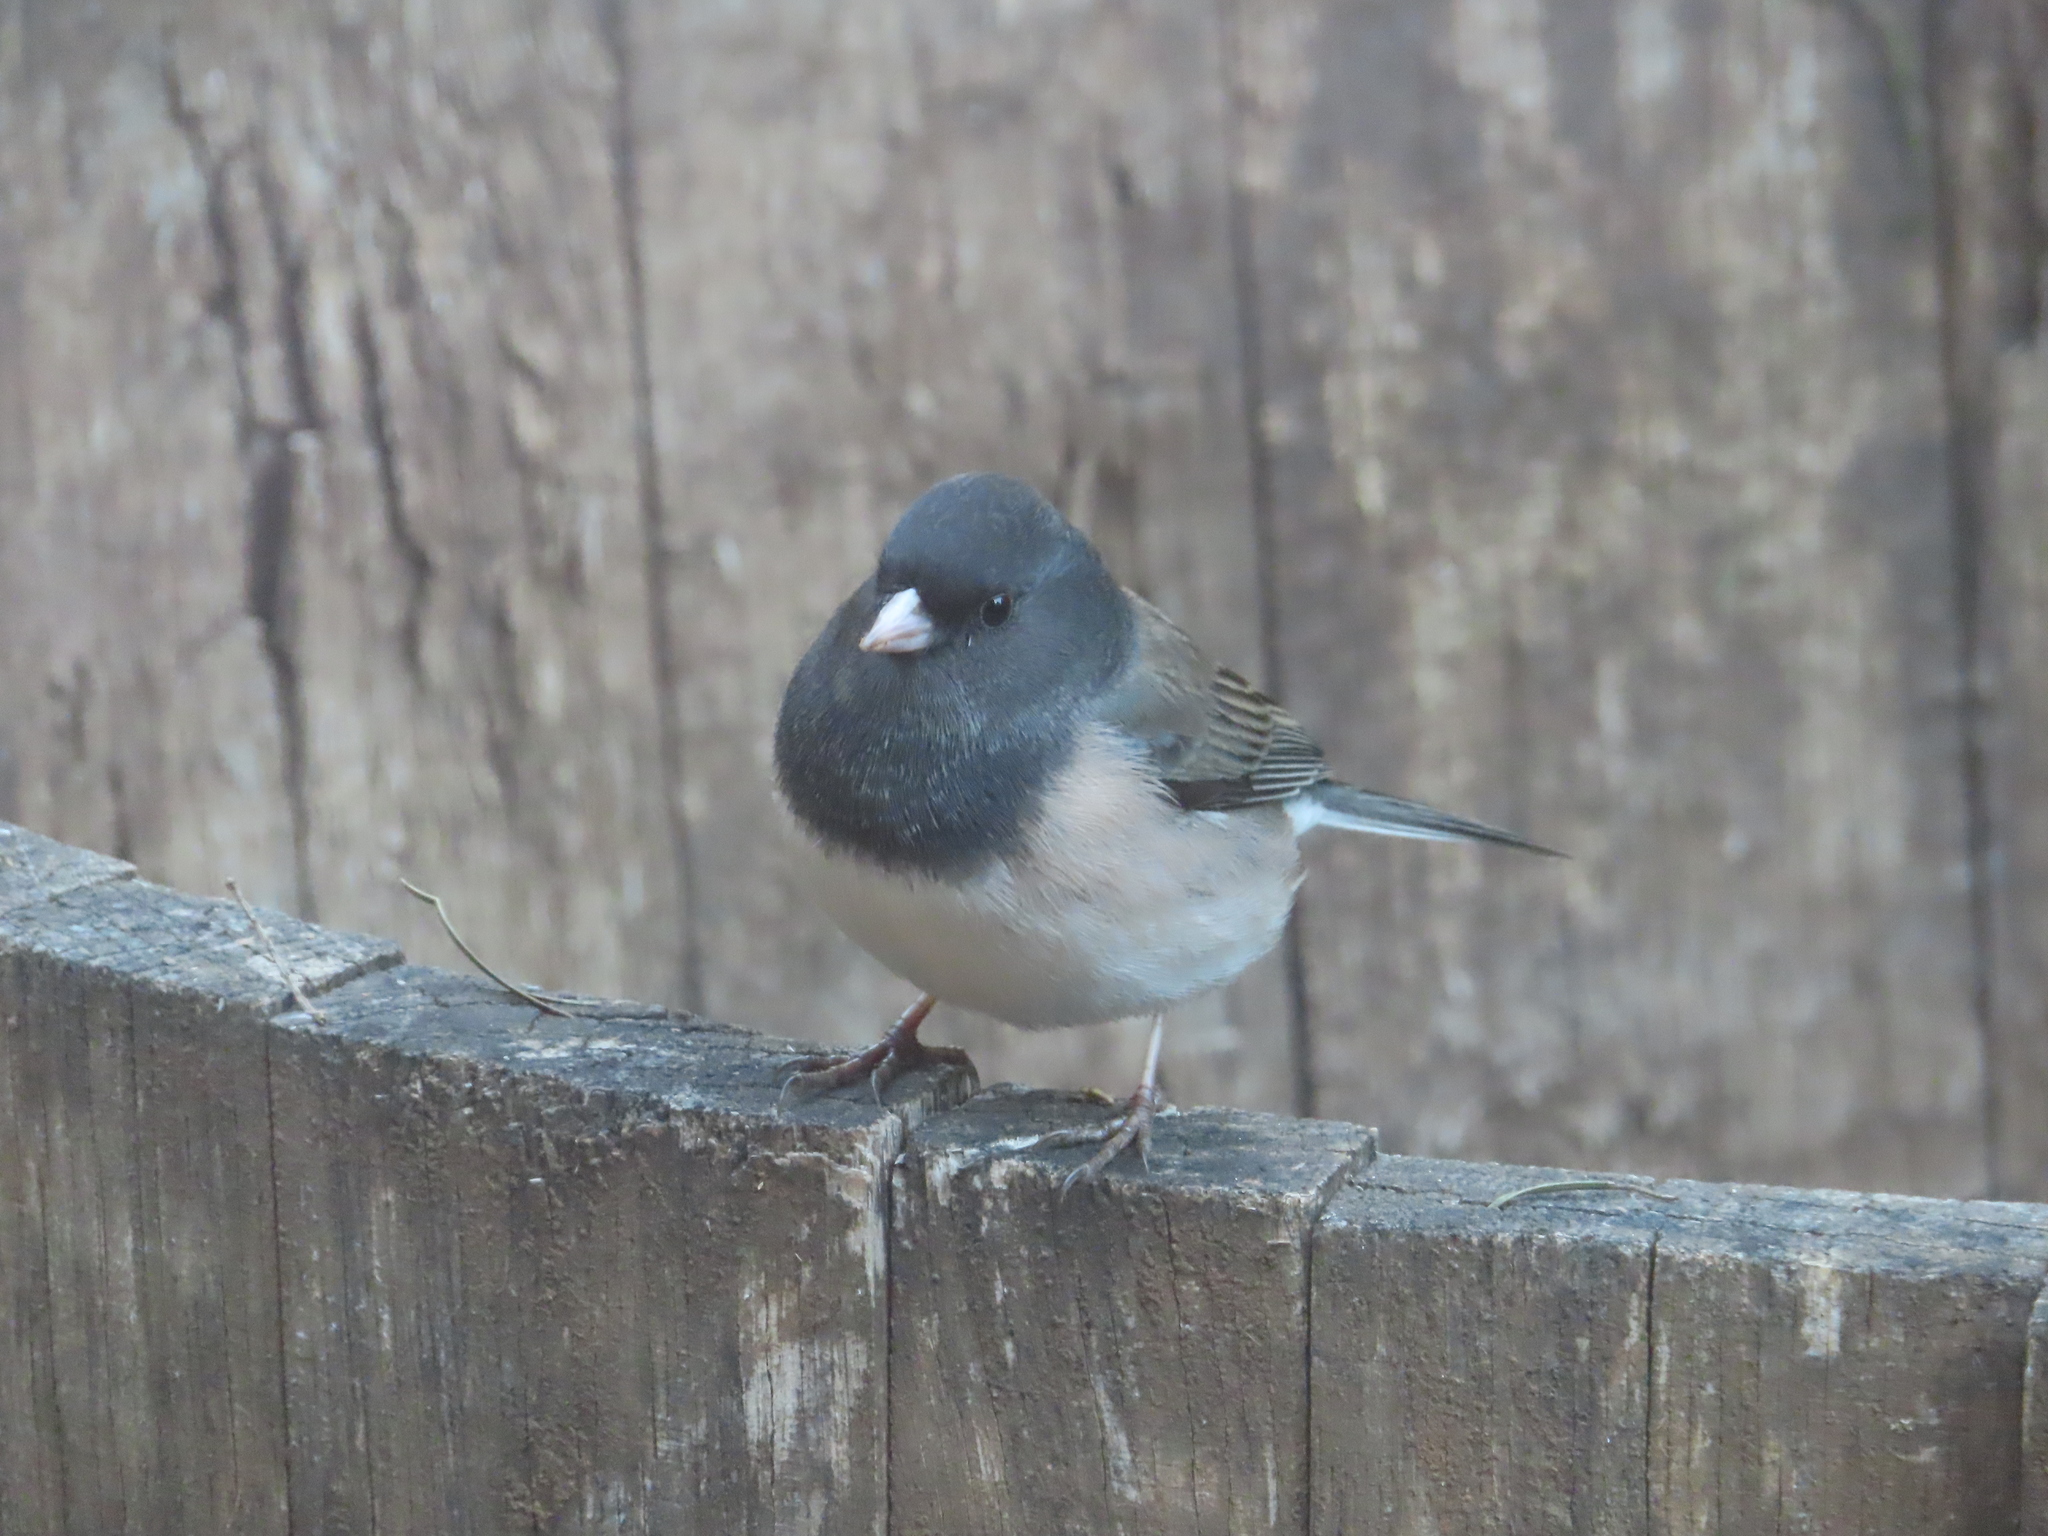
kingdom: Animalia
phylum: Chordata
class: Aves
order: Passeriformes
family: Passerellidae
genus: Junco
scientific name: Junco hyemalis
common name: Dark-eyed junco
